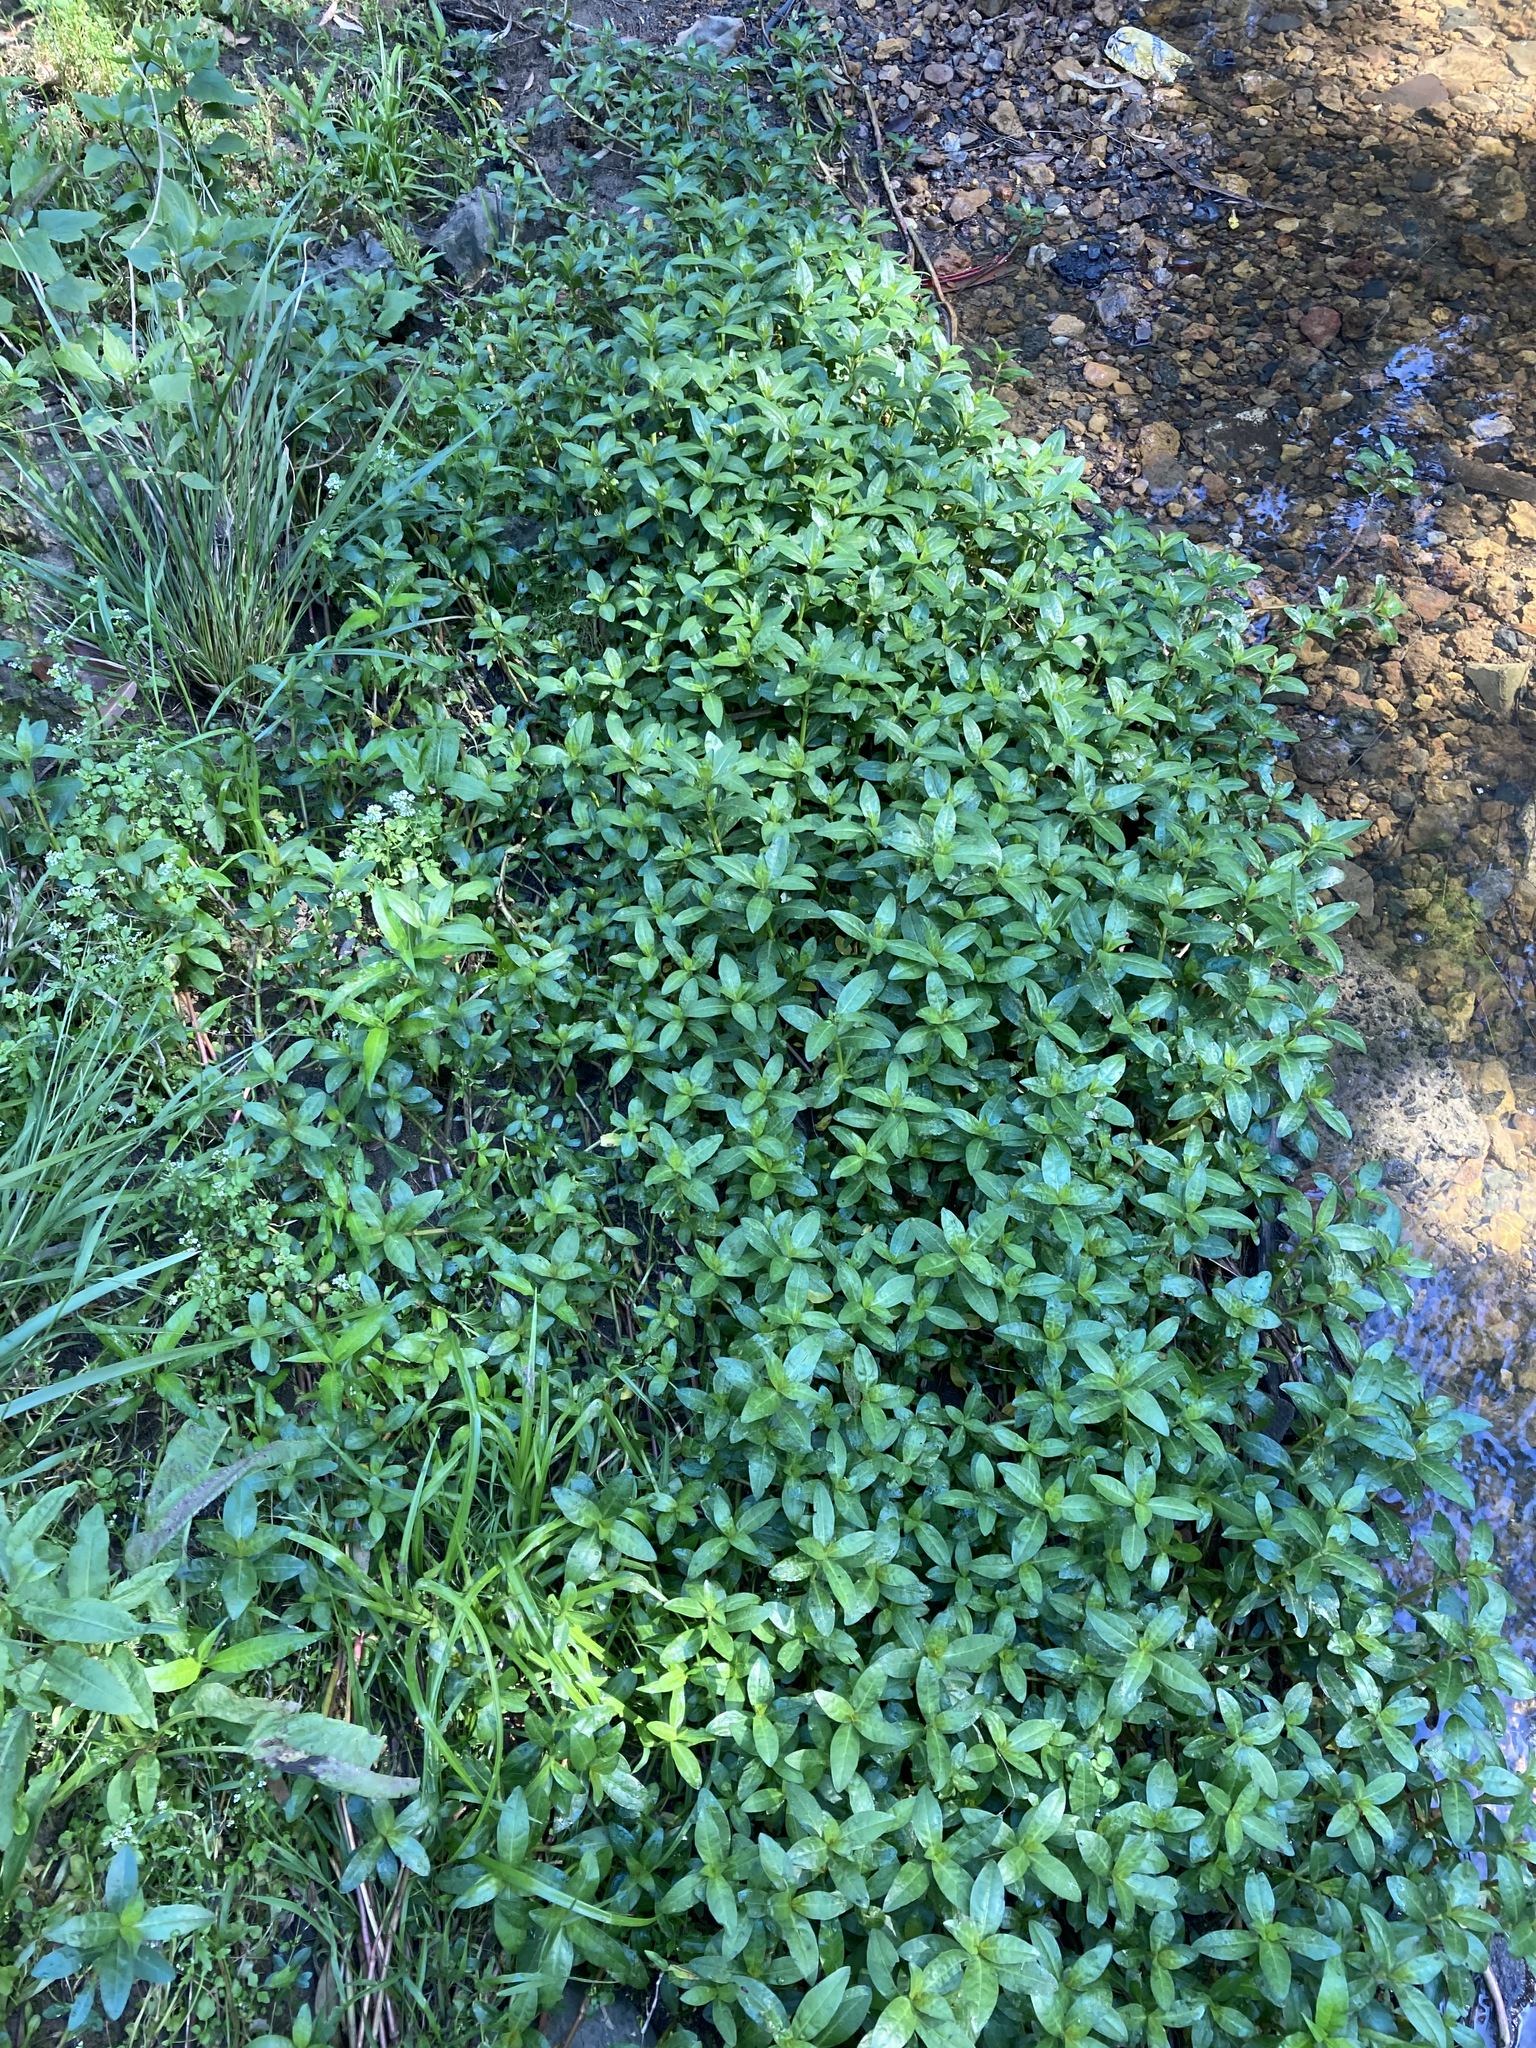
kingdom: Plantae
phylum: Tracheophyta
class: Magnoliopsida
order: Caryophyllales
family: Amaranthaceae
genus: Alternanthera
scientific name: Alternanthera philoxeroides
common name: Alligatorweed
